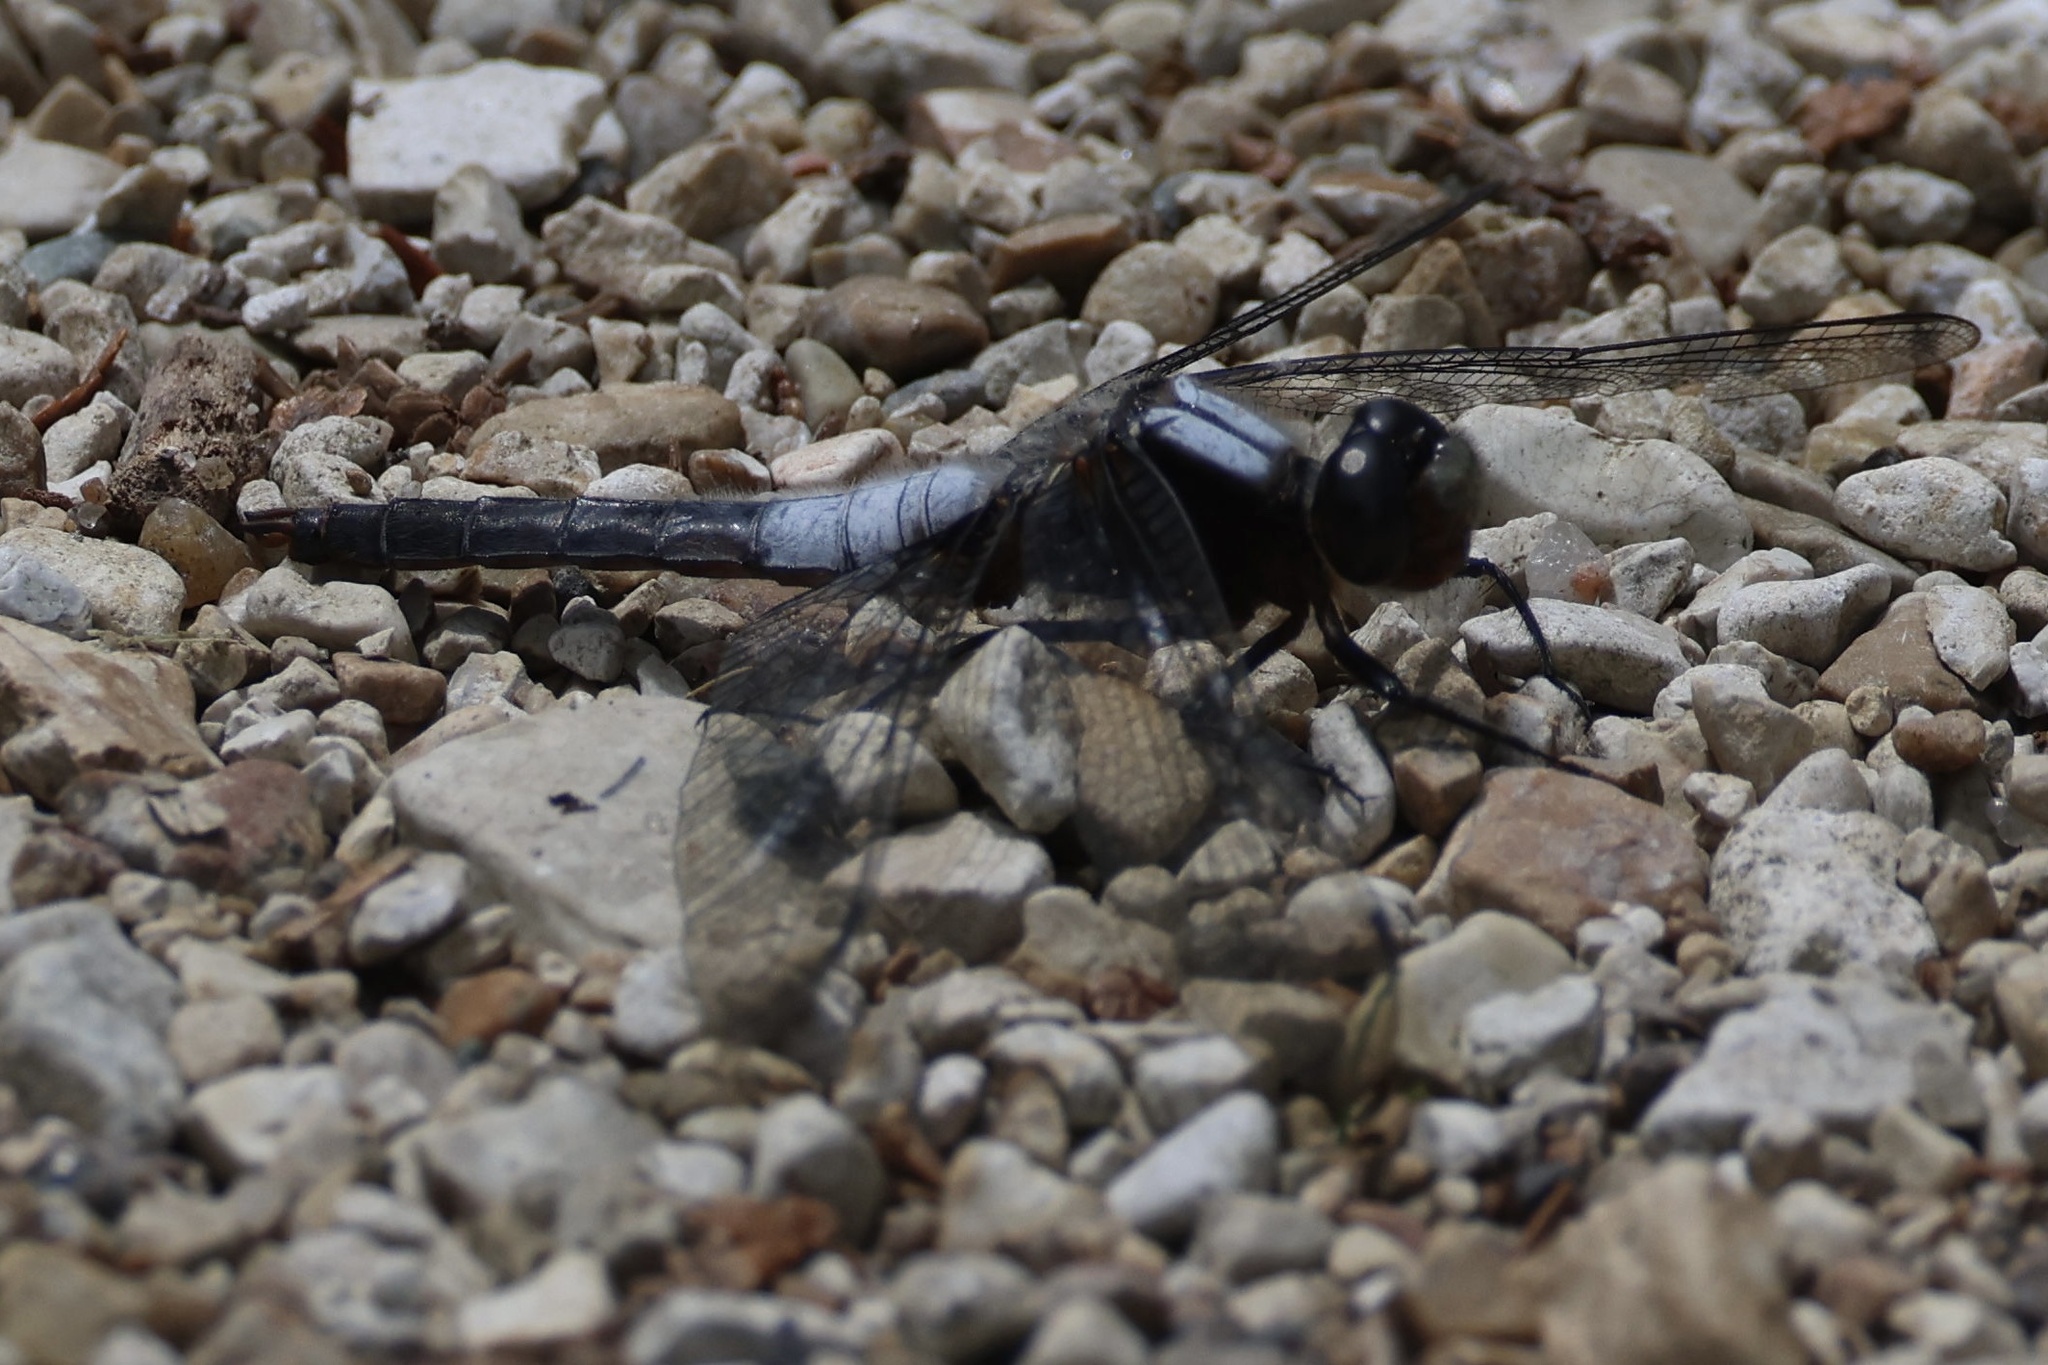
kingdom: Animalia
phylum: Arthropoda
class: Insecta
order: Odonata
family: Libellulidae
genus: Ladona
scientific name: Ladona julia
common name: Chalk-fronted corporal
